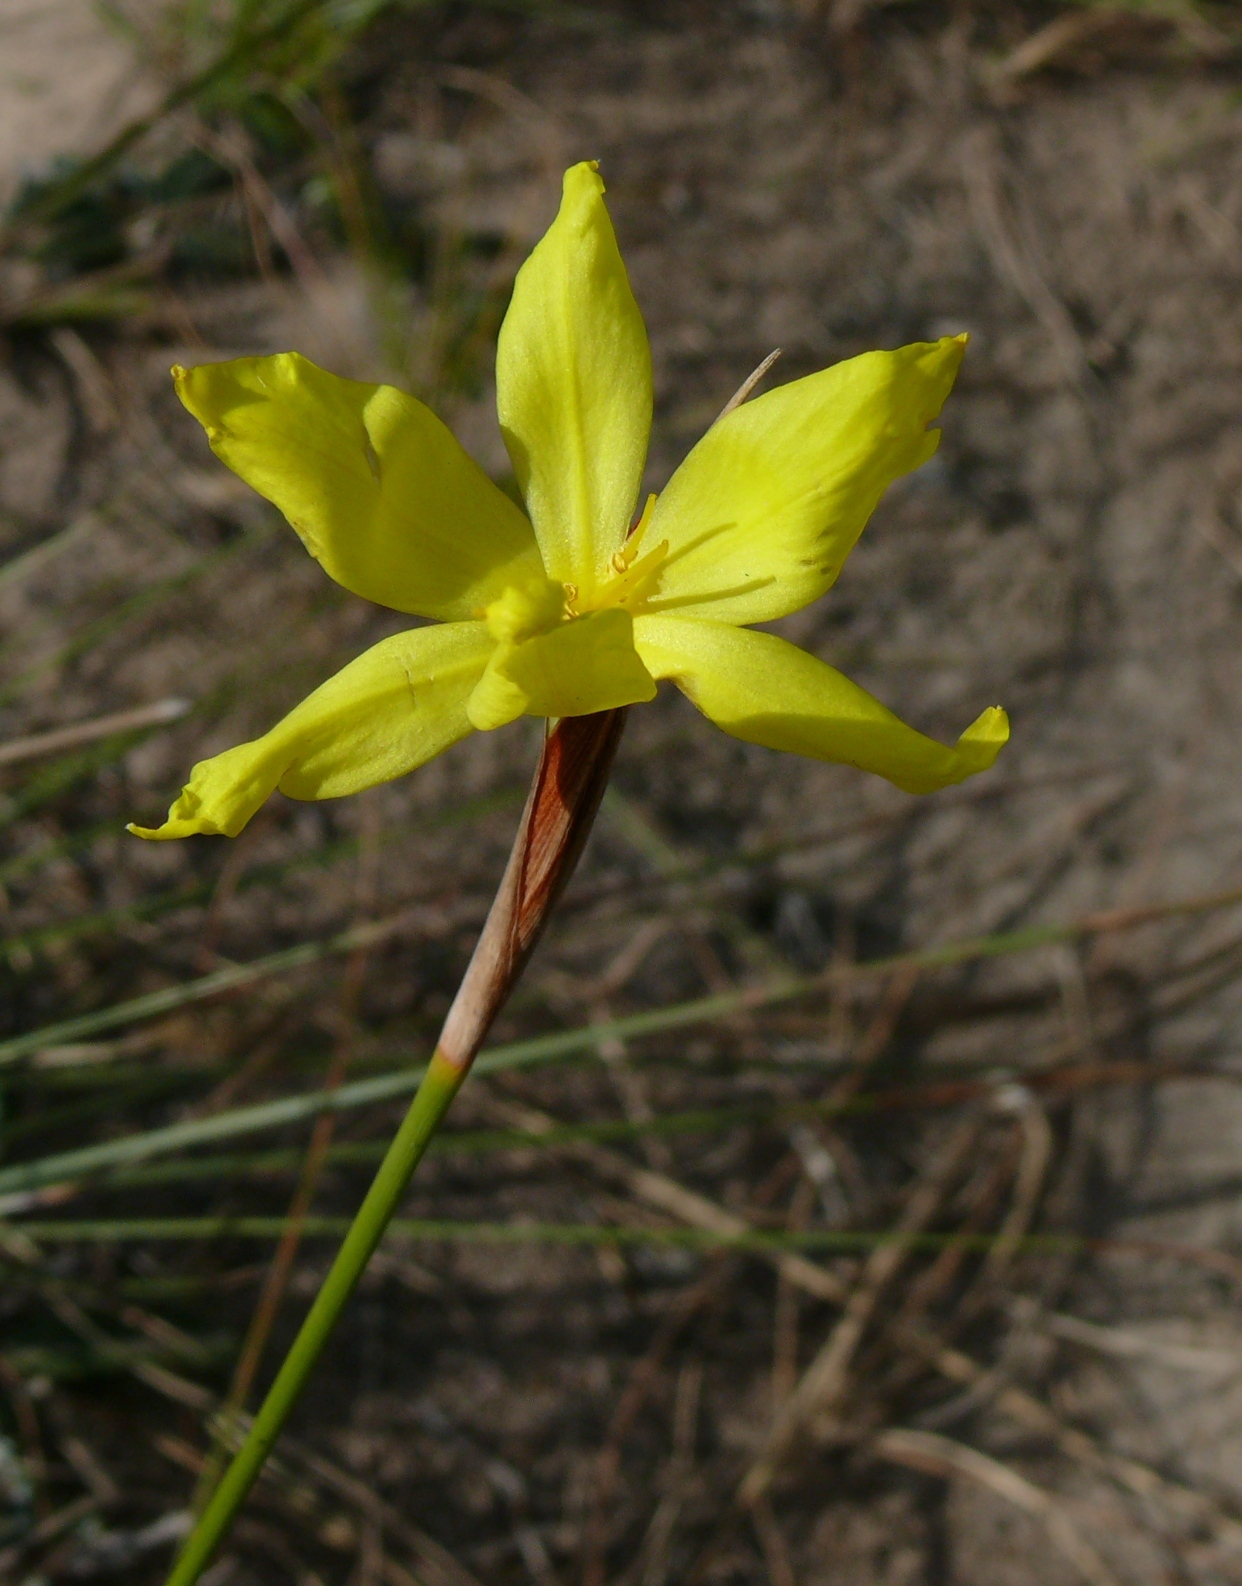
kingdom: Plantae
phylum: Tracheophyta
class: Liliopsida
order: Asparagales
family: Iridaceae
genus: Bobartia
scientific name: Bobartia macrospatha
